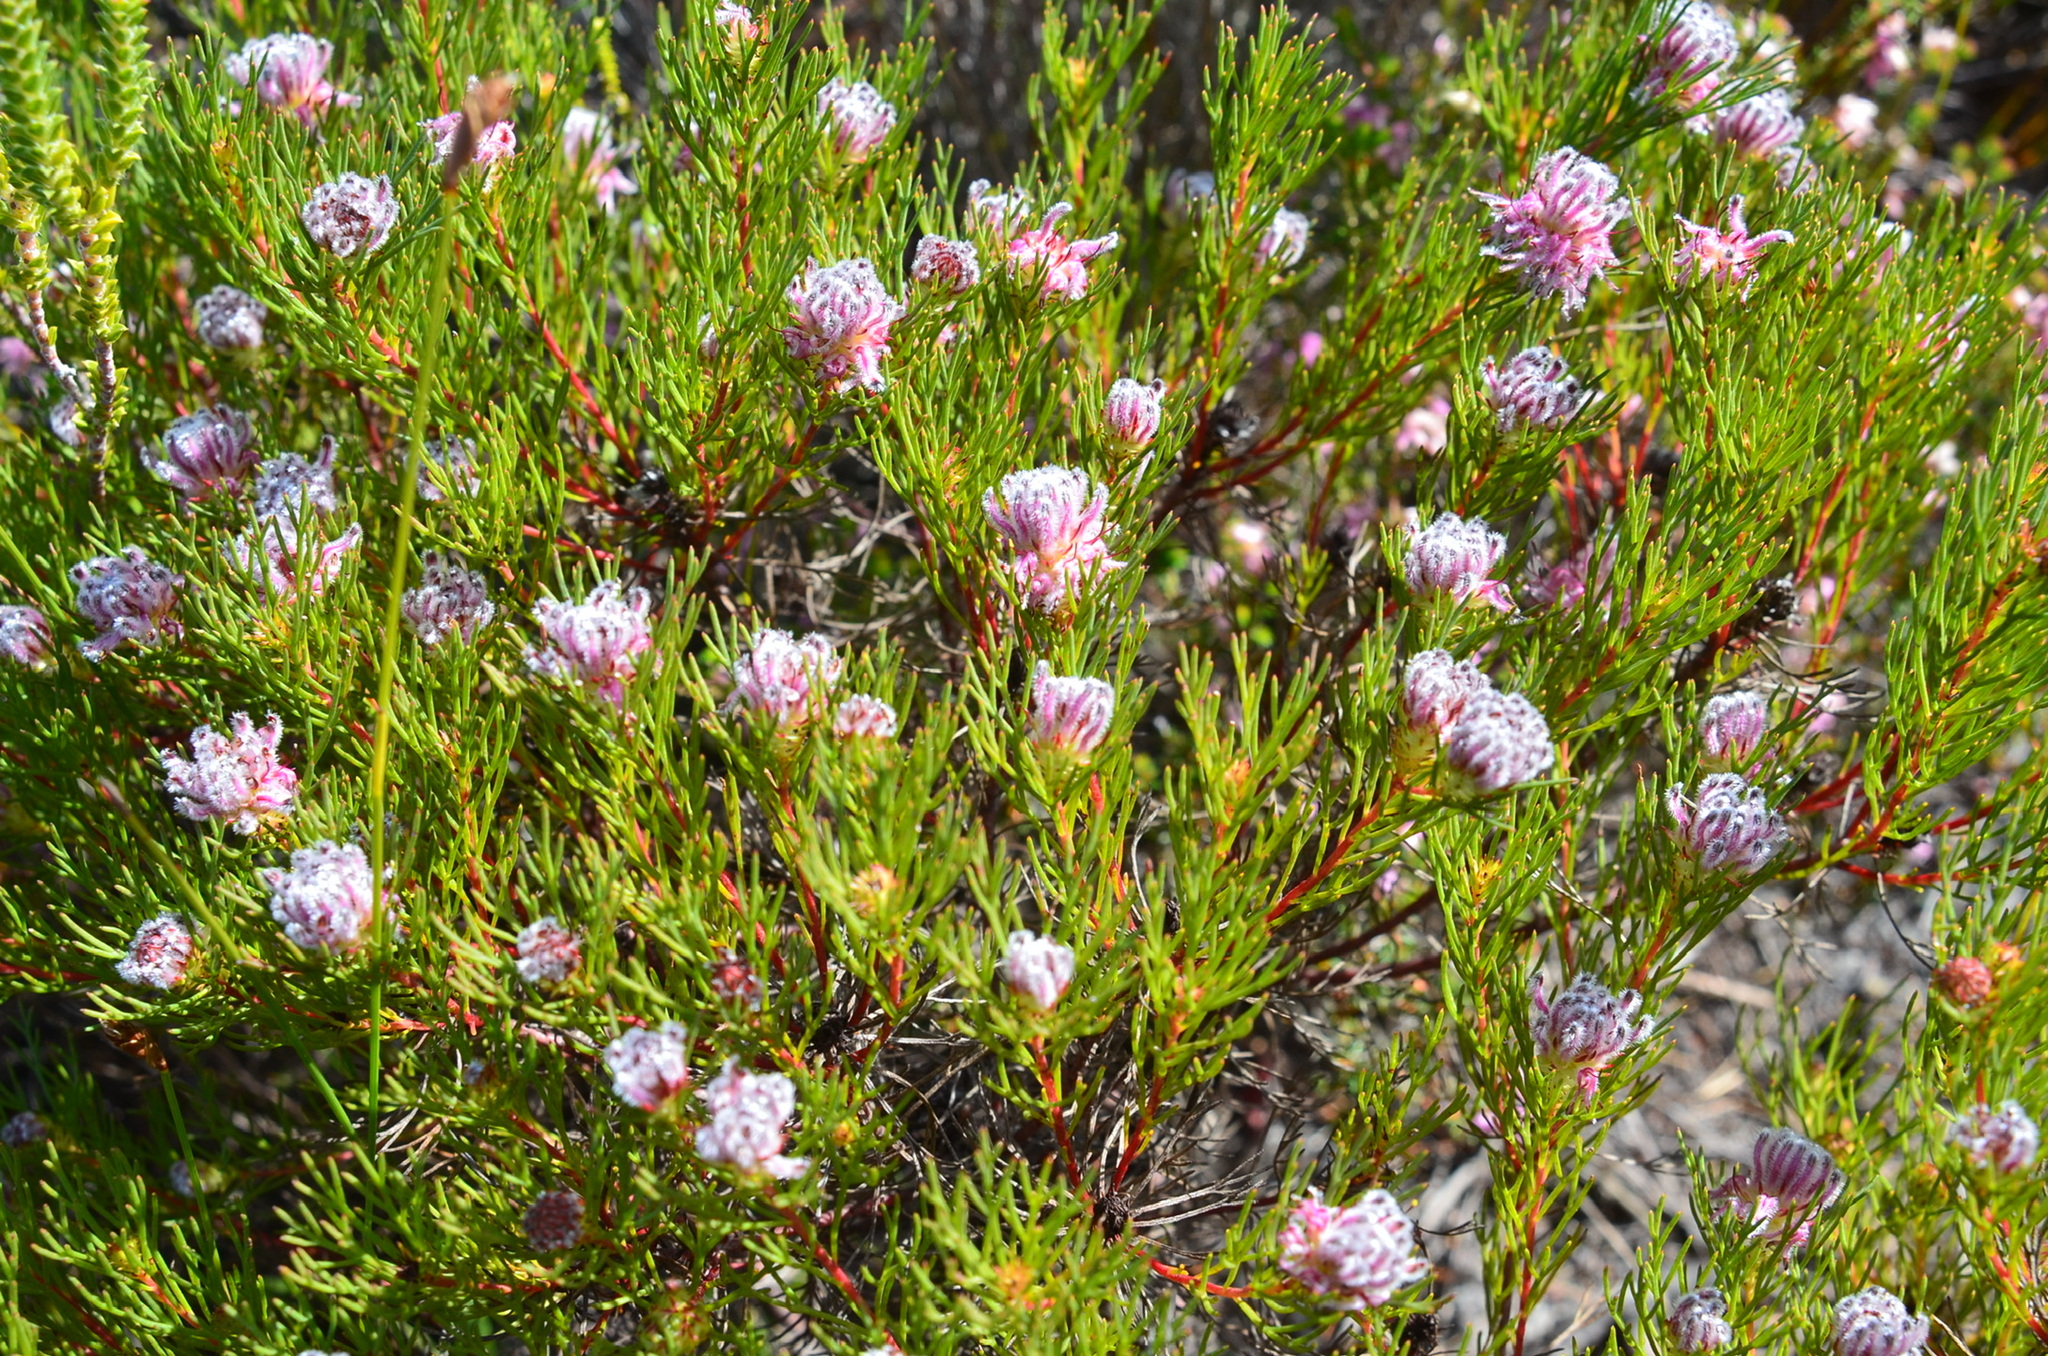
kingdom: Plantae
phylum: Tracheophyta
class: Magnoliopsida
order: Proteales
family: Proteaceae
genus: Serruria
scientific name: Serruria nervosa
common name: Fluted spiderhead
